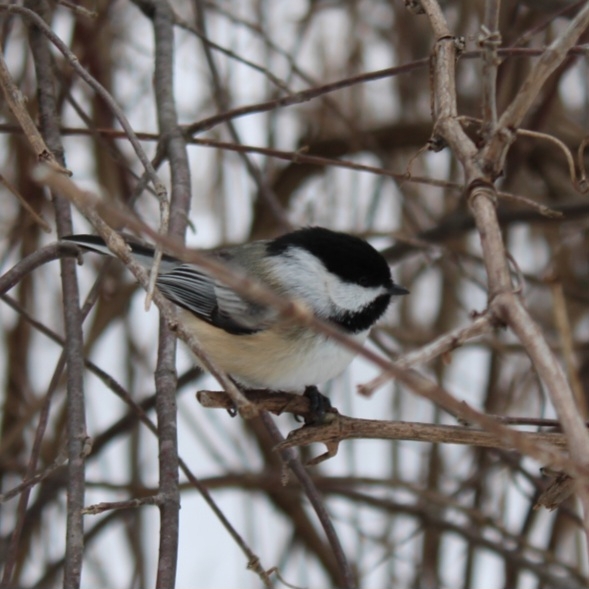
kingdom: Animalia
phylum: Chordata
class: Aves
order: Passeriformes
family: Paridae
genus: Poecile
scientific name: Poecile atricapillus
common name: Black-capped chickadee
